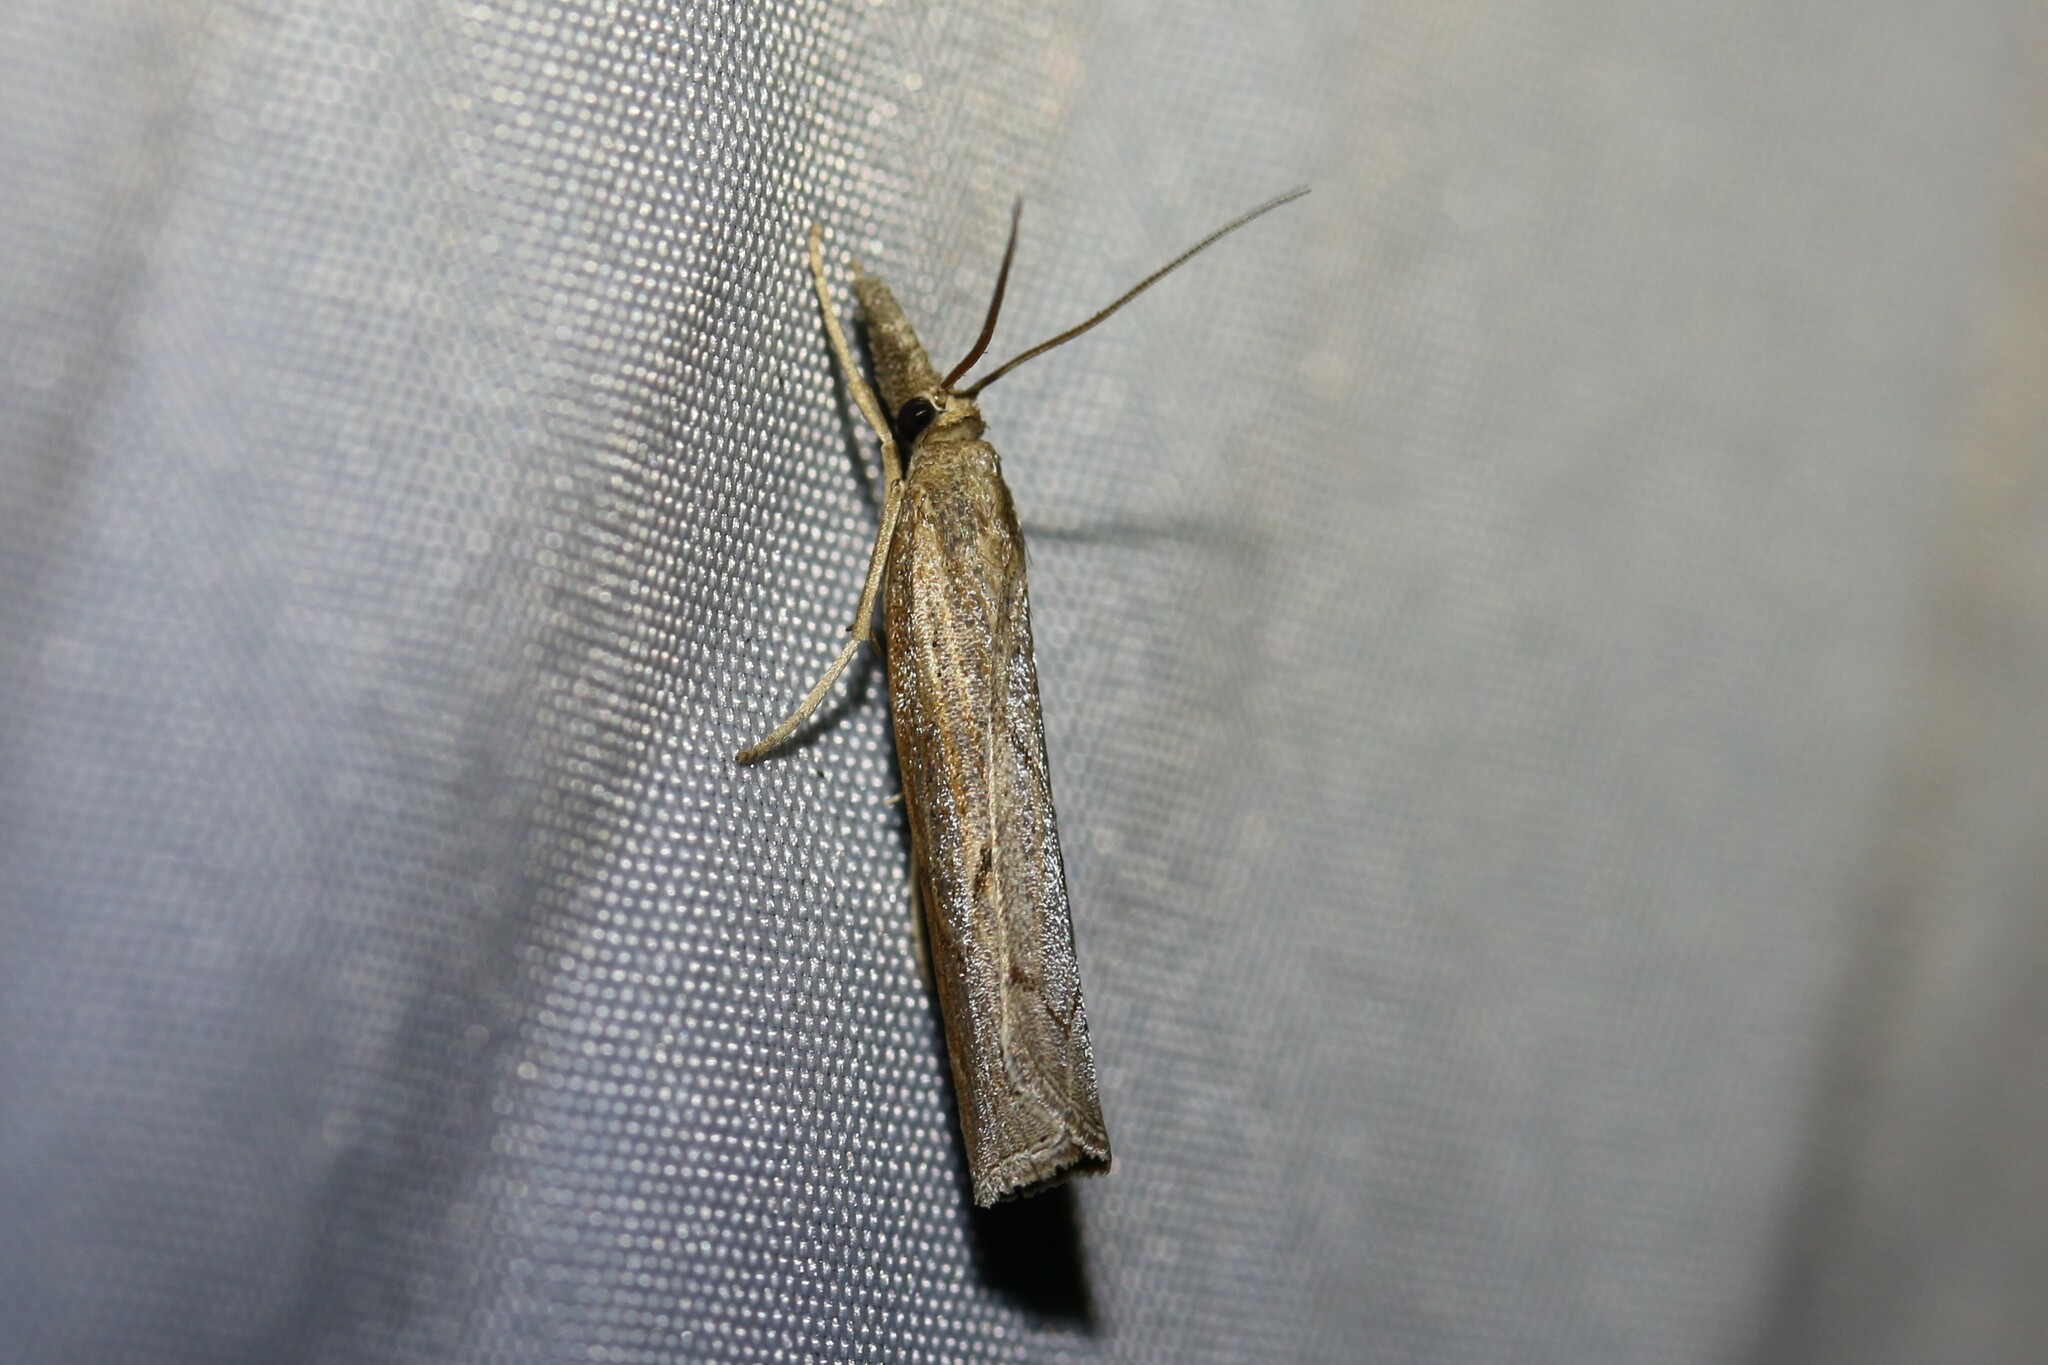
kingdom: Animalia
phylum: Arthropoda
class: Insecta
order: Lepidoptera
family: Crambidae
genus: Pediasia
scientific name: Pediasia contaminella
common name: Waste grass-veneer
